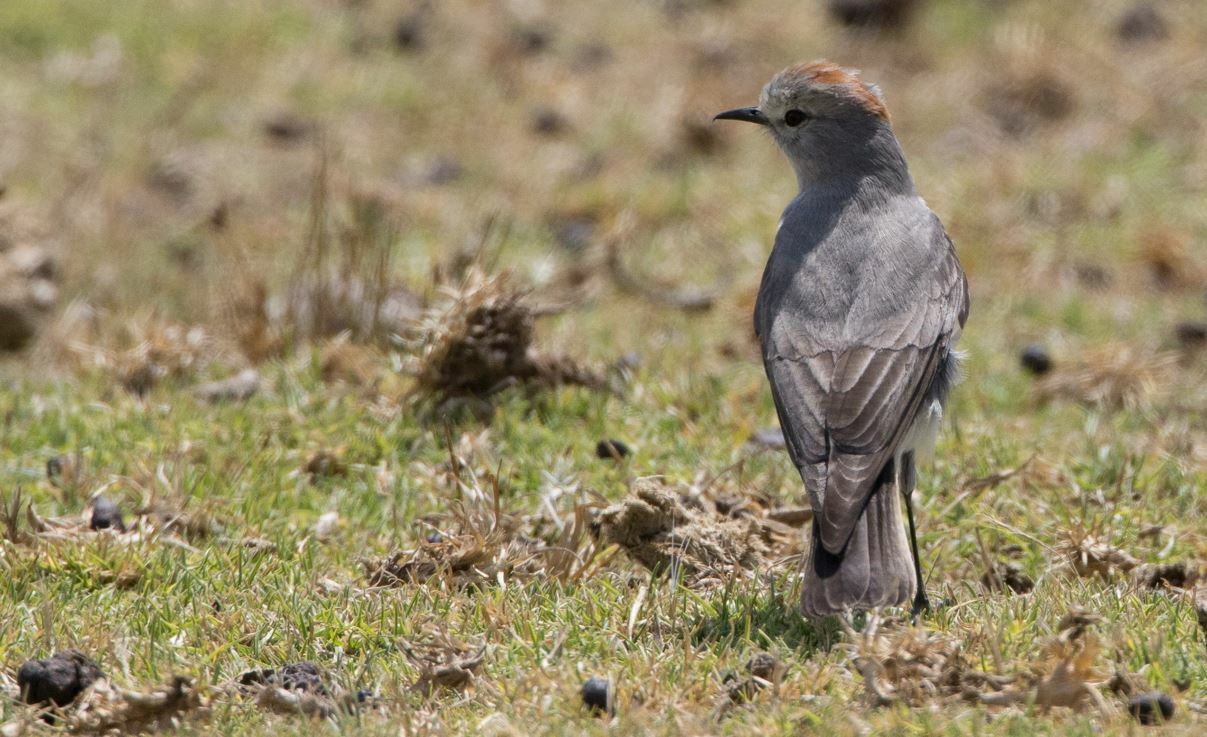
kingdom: Animalia
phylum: Chordata
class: Aves
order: Passeriformes
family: Tyrannidae
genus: Muscisaxicola
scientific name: Muscisaxicola rufivertex
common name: Rufous-naped ground tyrant
